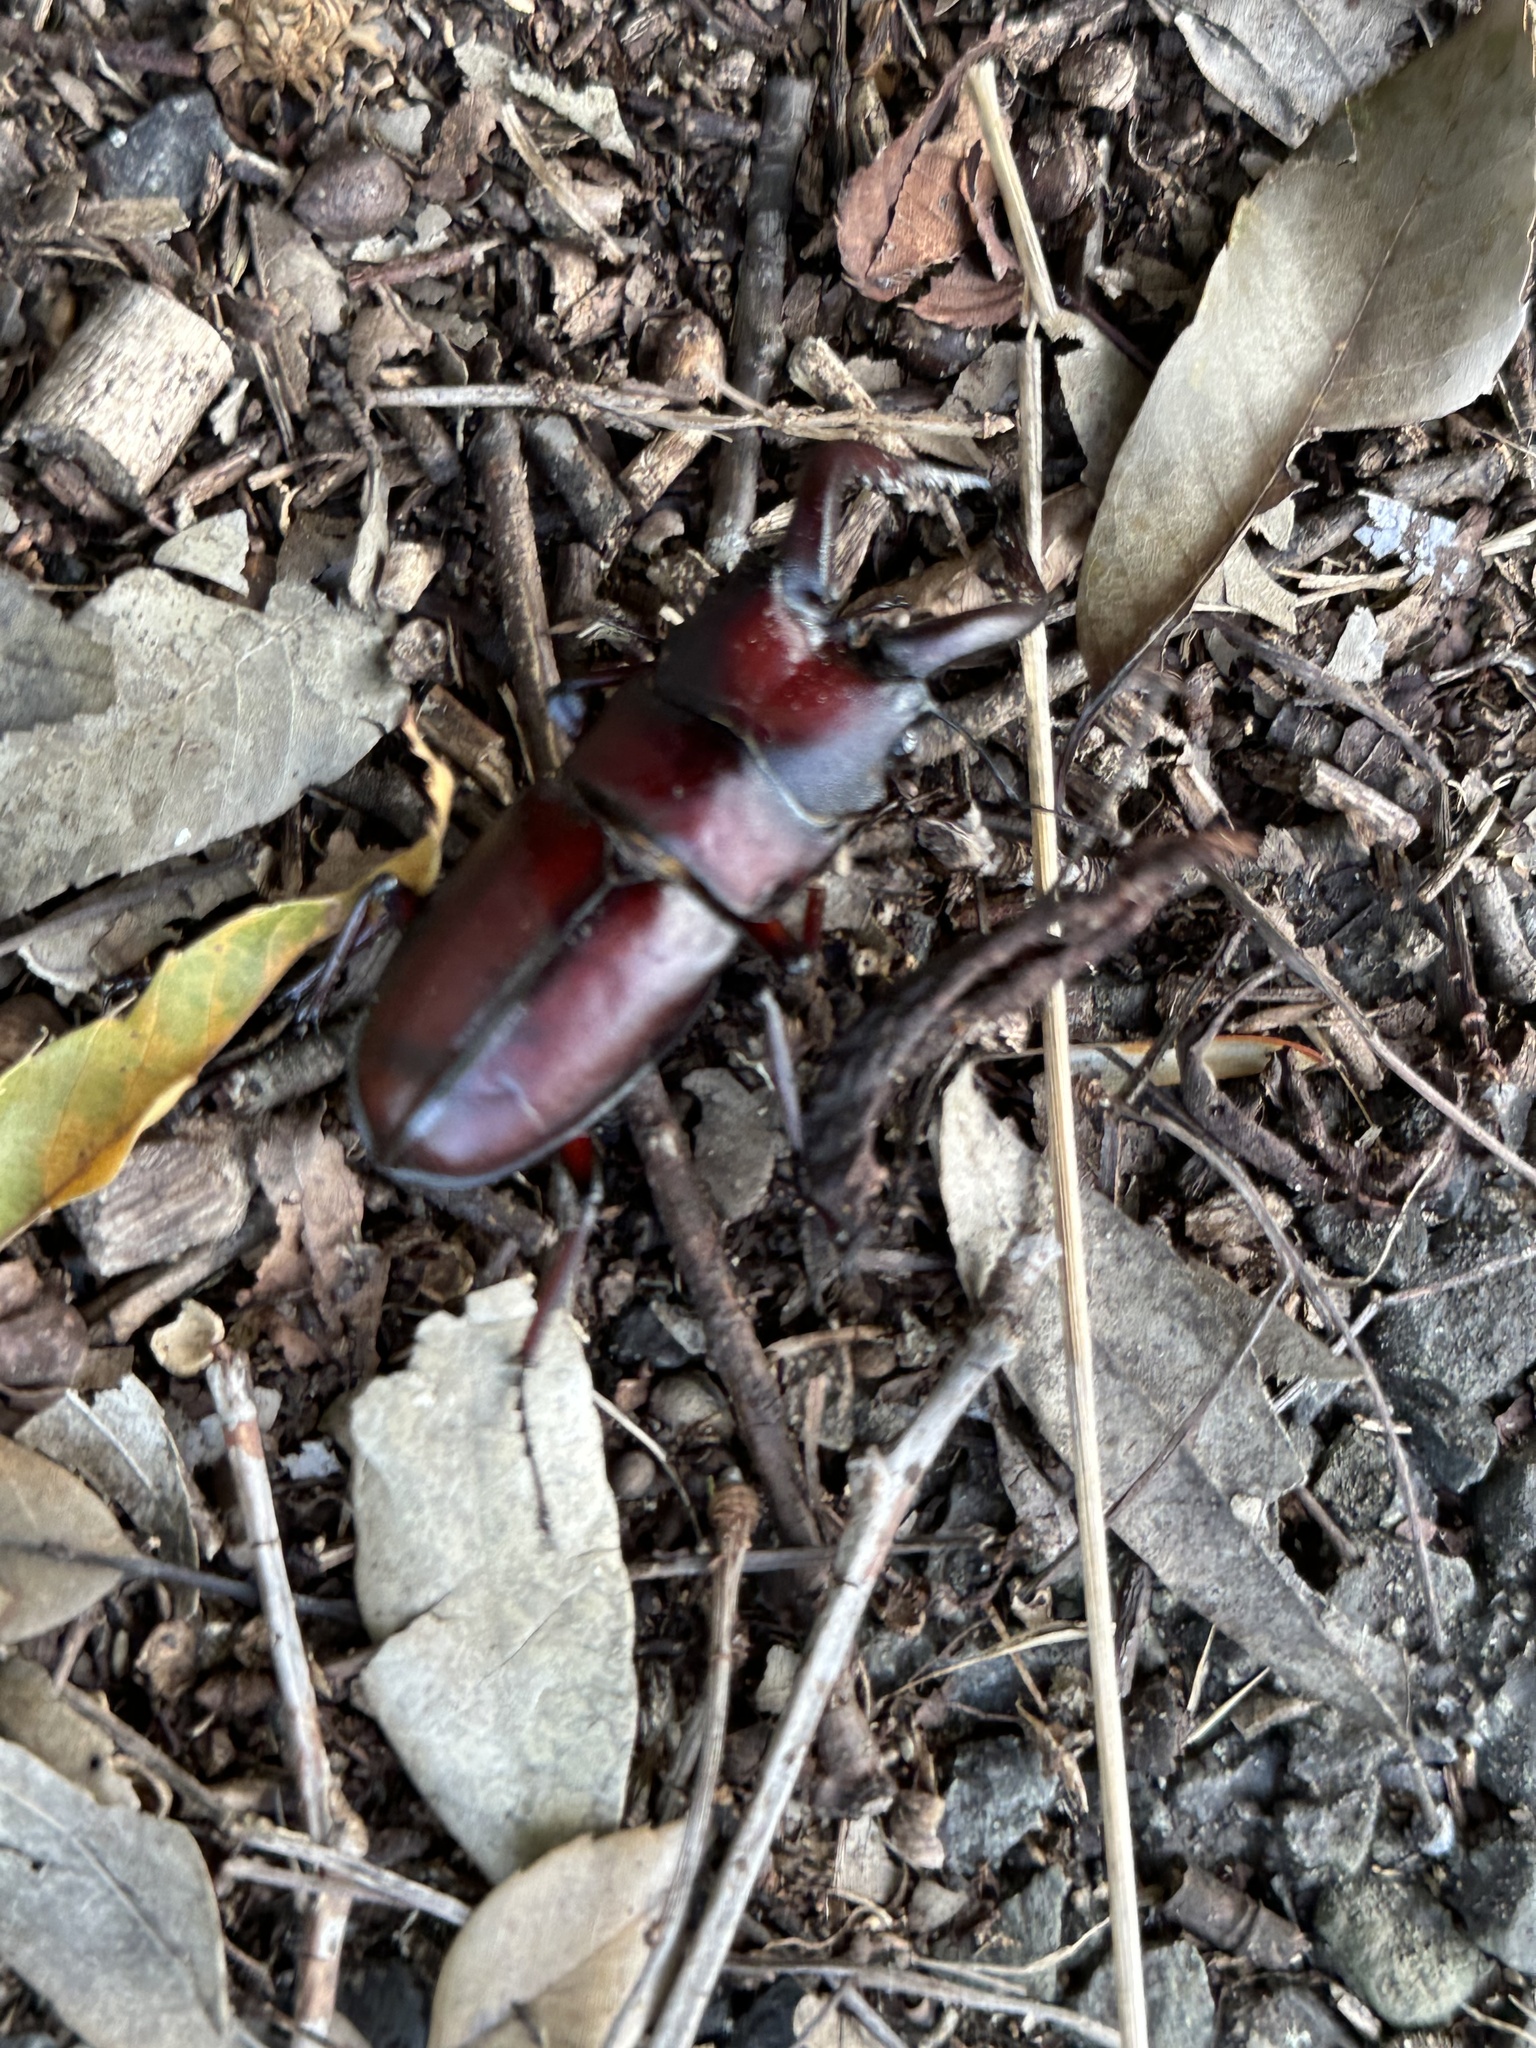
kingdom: Animalia
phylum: Arthropoda
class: Insecta
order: Coleoptera
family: Lucanidae
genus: Prosopocoilus
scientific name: Prosopocoilus inclinatus
